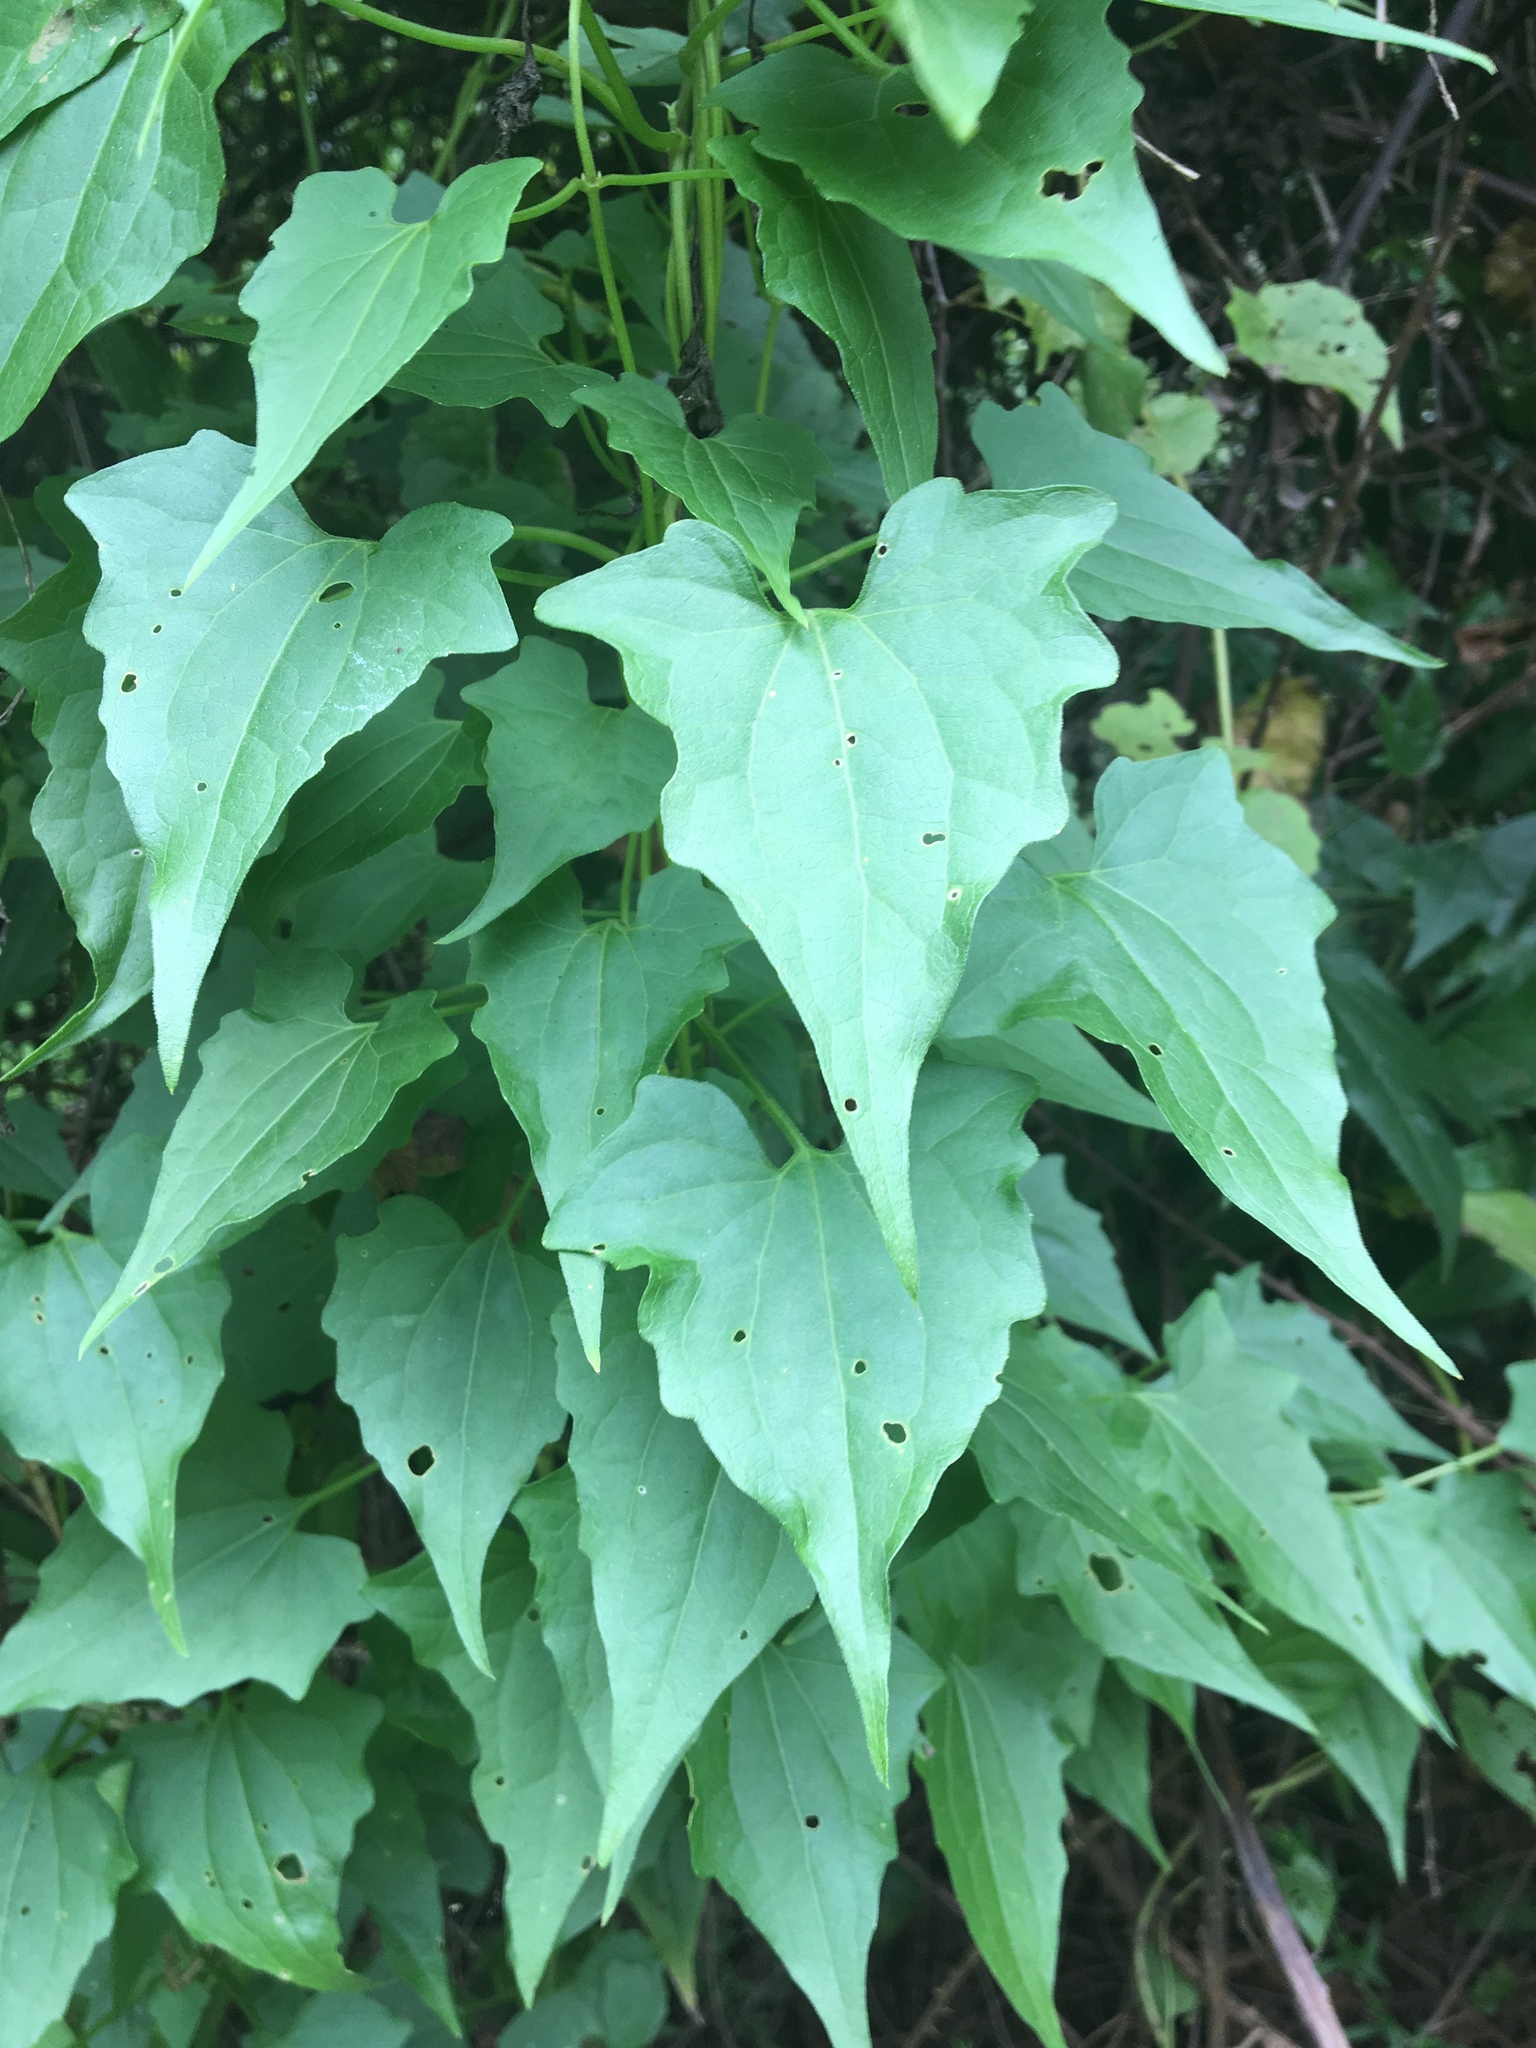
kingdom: Plantae
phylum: Tracheophyta
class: Magnoliopsida
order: Asterales
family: Asteraceae
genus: Mikania
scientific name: Mikania scandens
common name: Climbing hempvine
